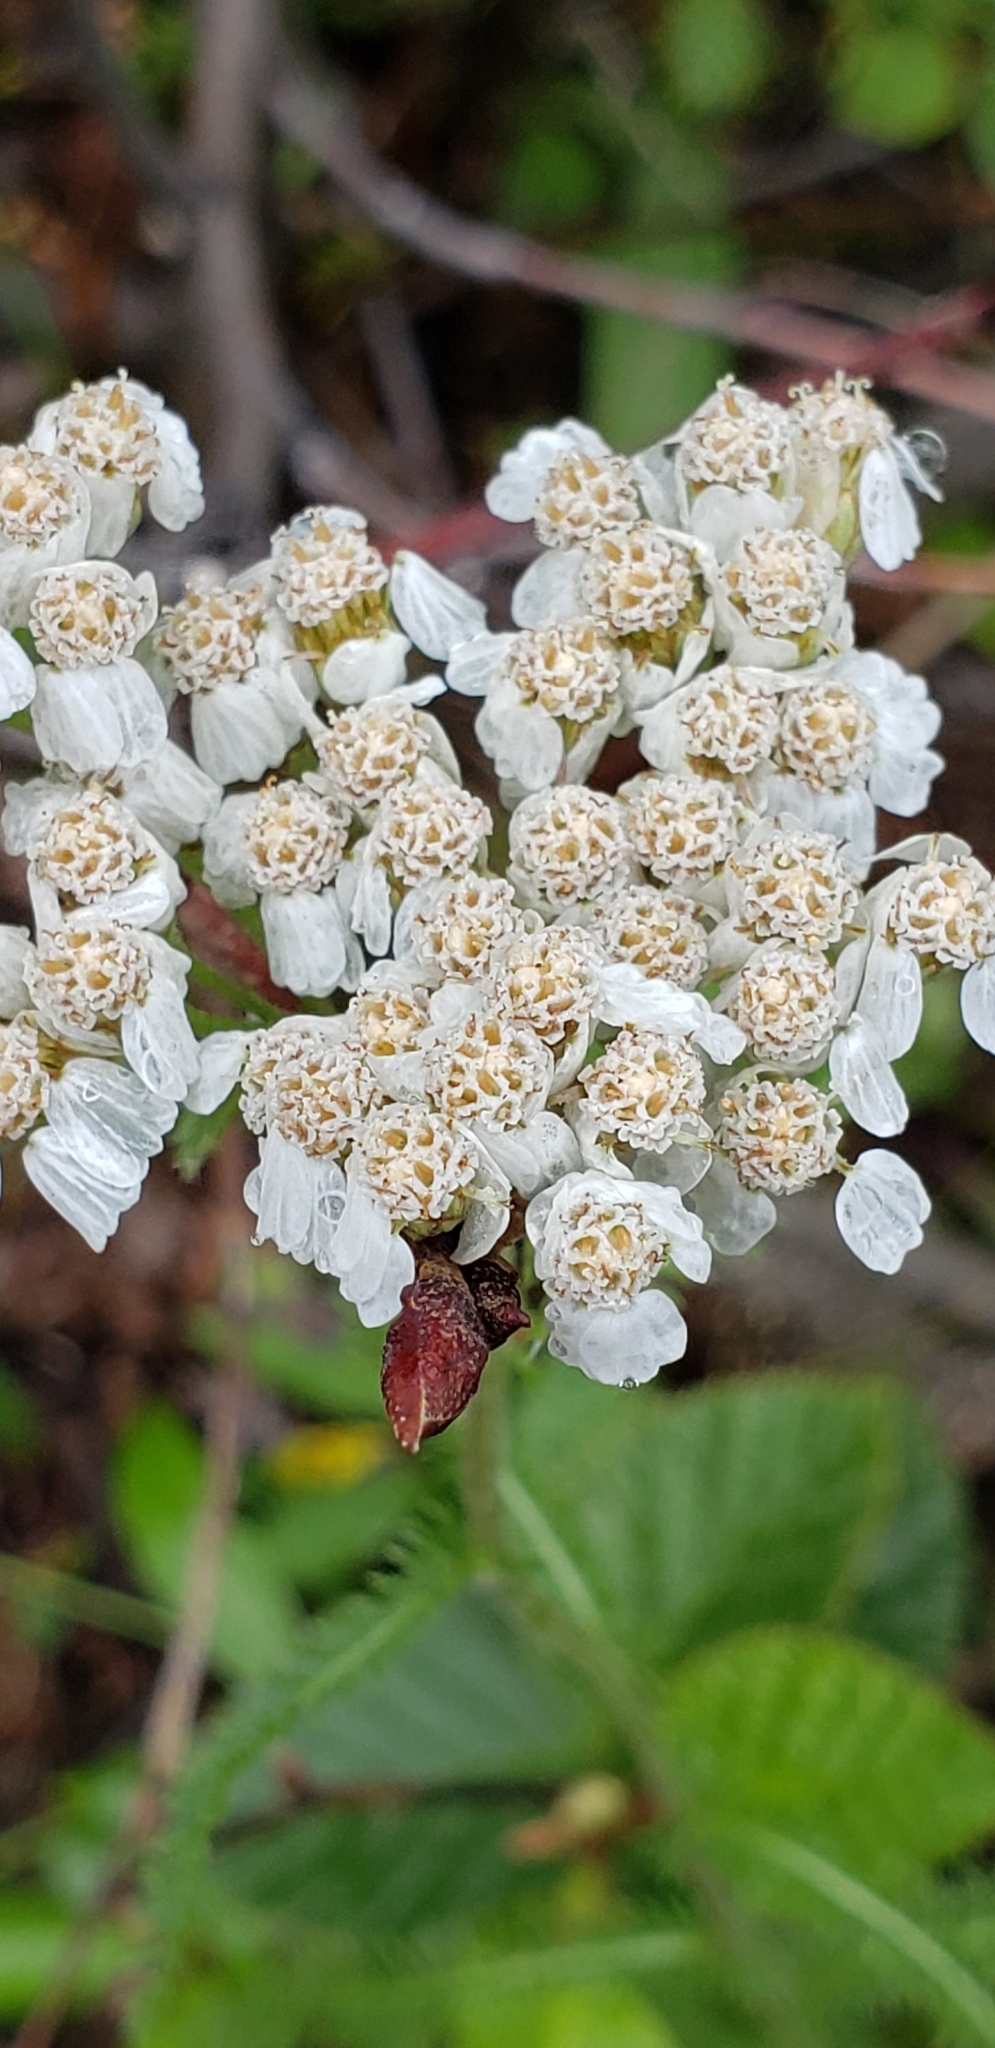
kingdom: Plantae
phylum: Tracheophyta
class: Magnoliopsida
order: Asterales
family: Asteraceae
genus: Achillea
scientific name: Achillea millefolium
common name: Yarrow
